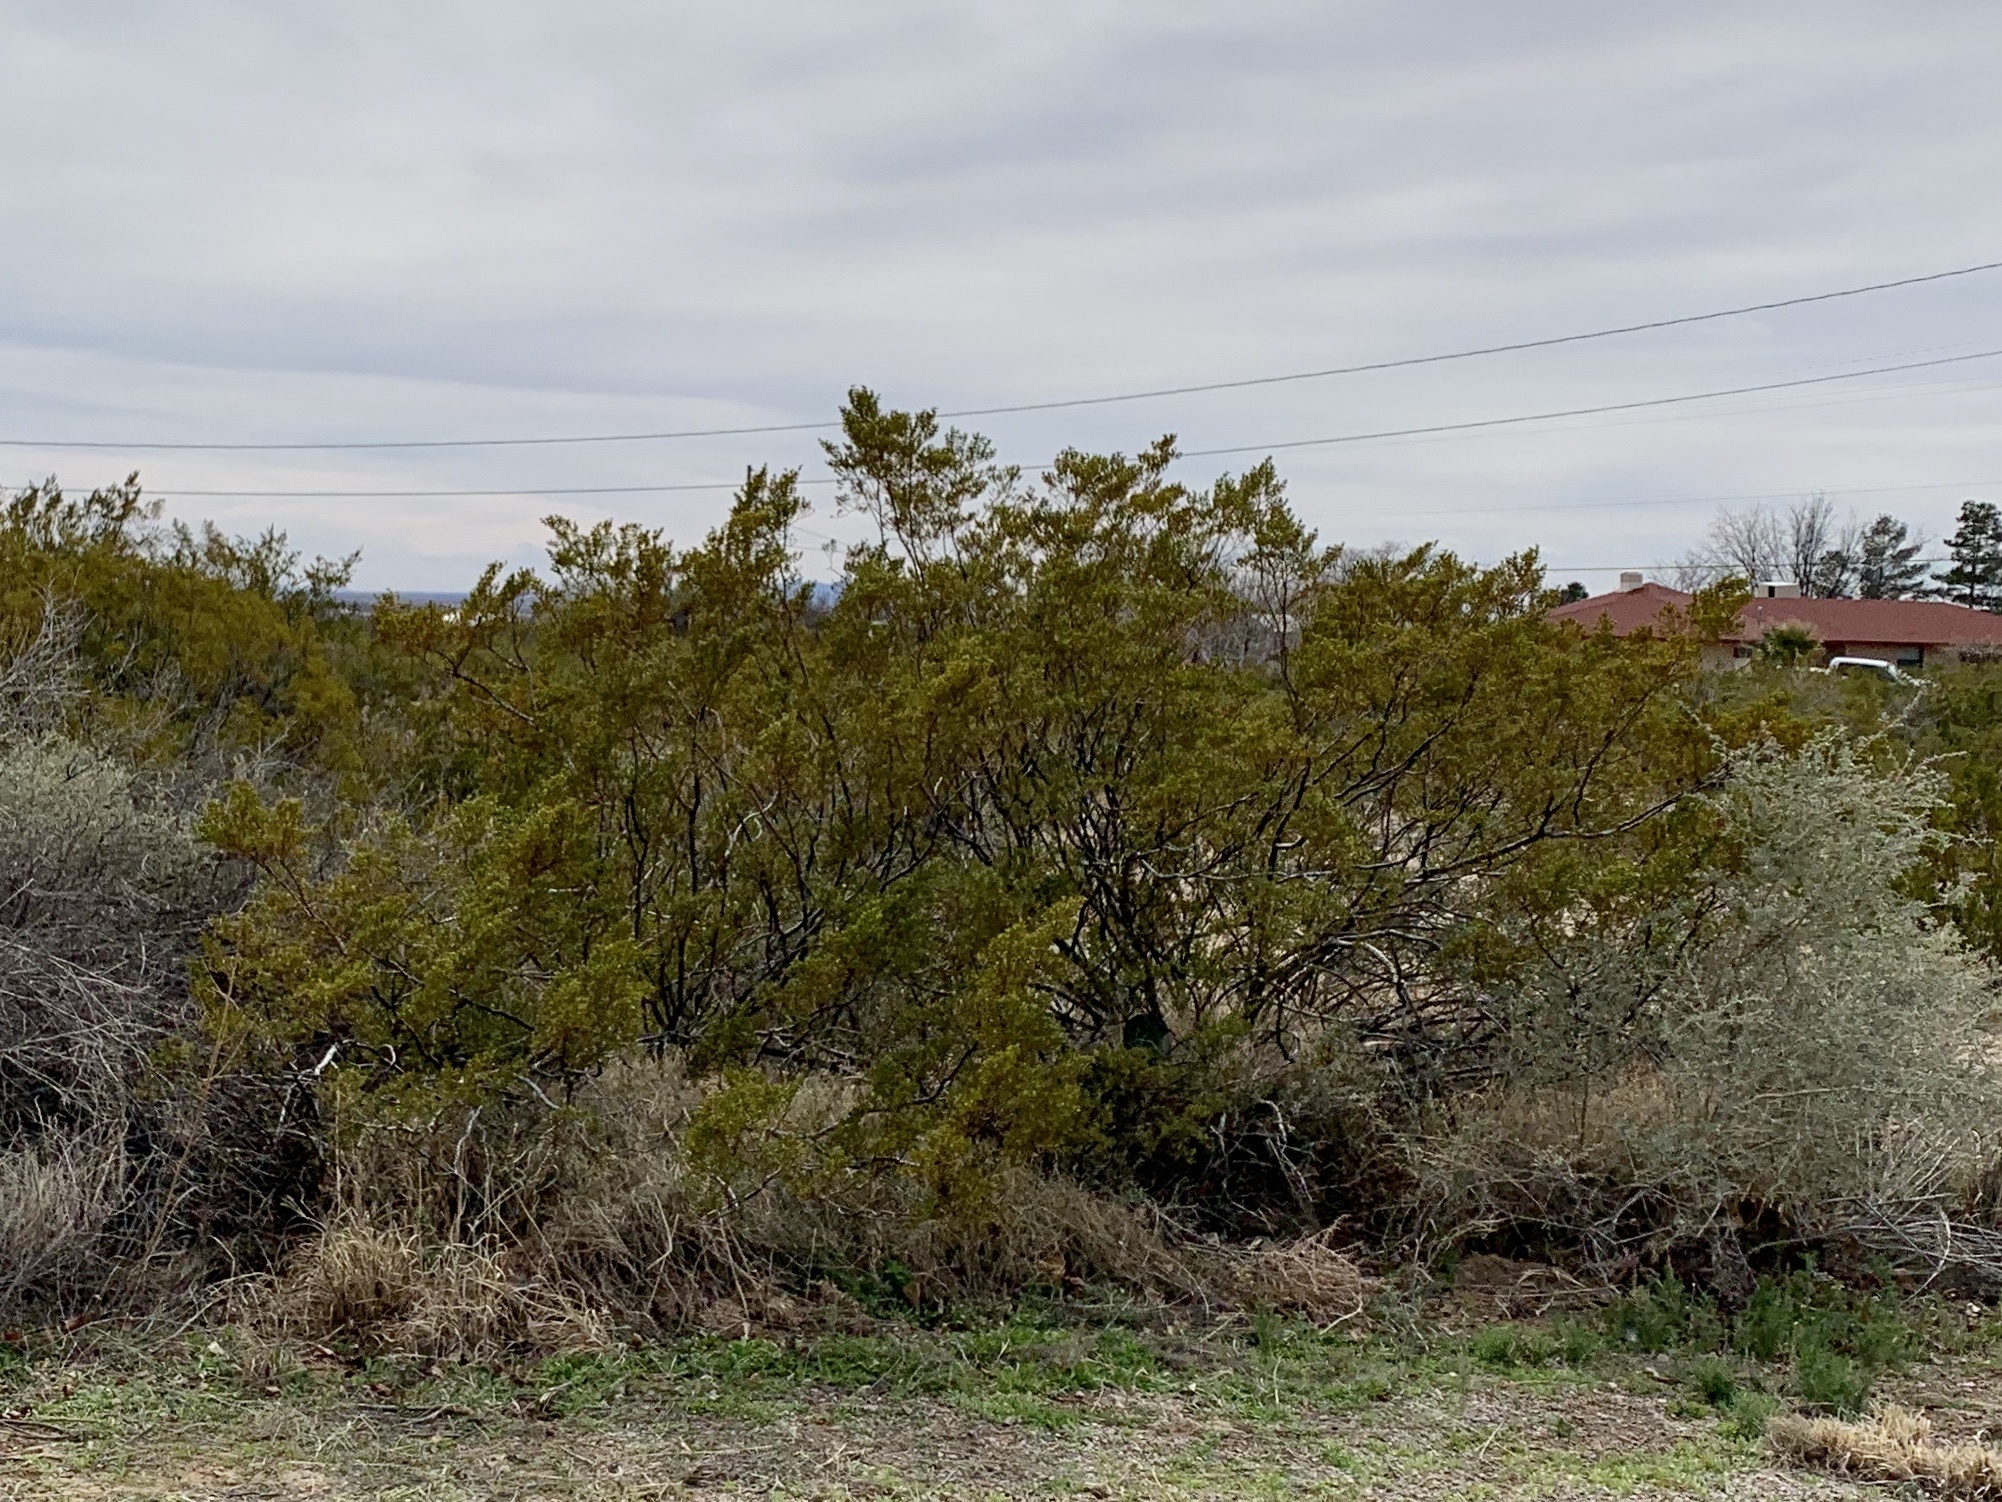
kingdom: Plantae
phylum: Tracheophyta
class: Magnoliopsida
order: Zygophyllales
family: Zygophyllaceae
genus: Larrea
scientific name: Larrea tridentata
